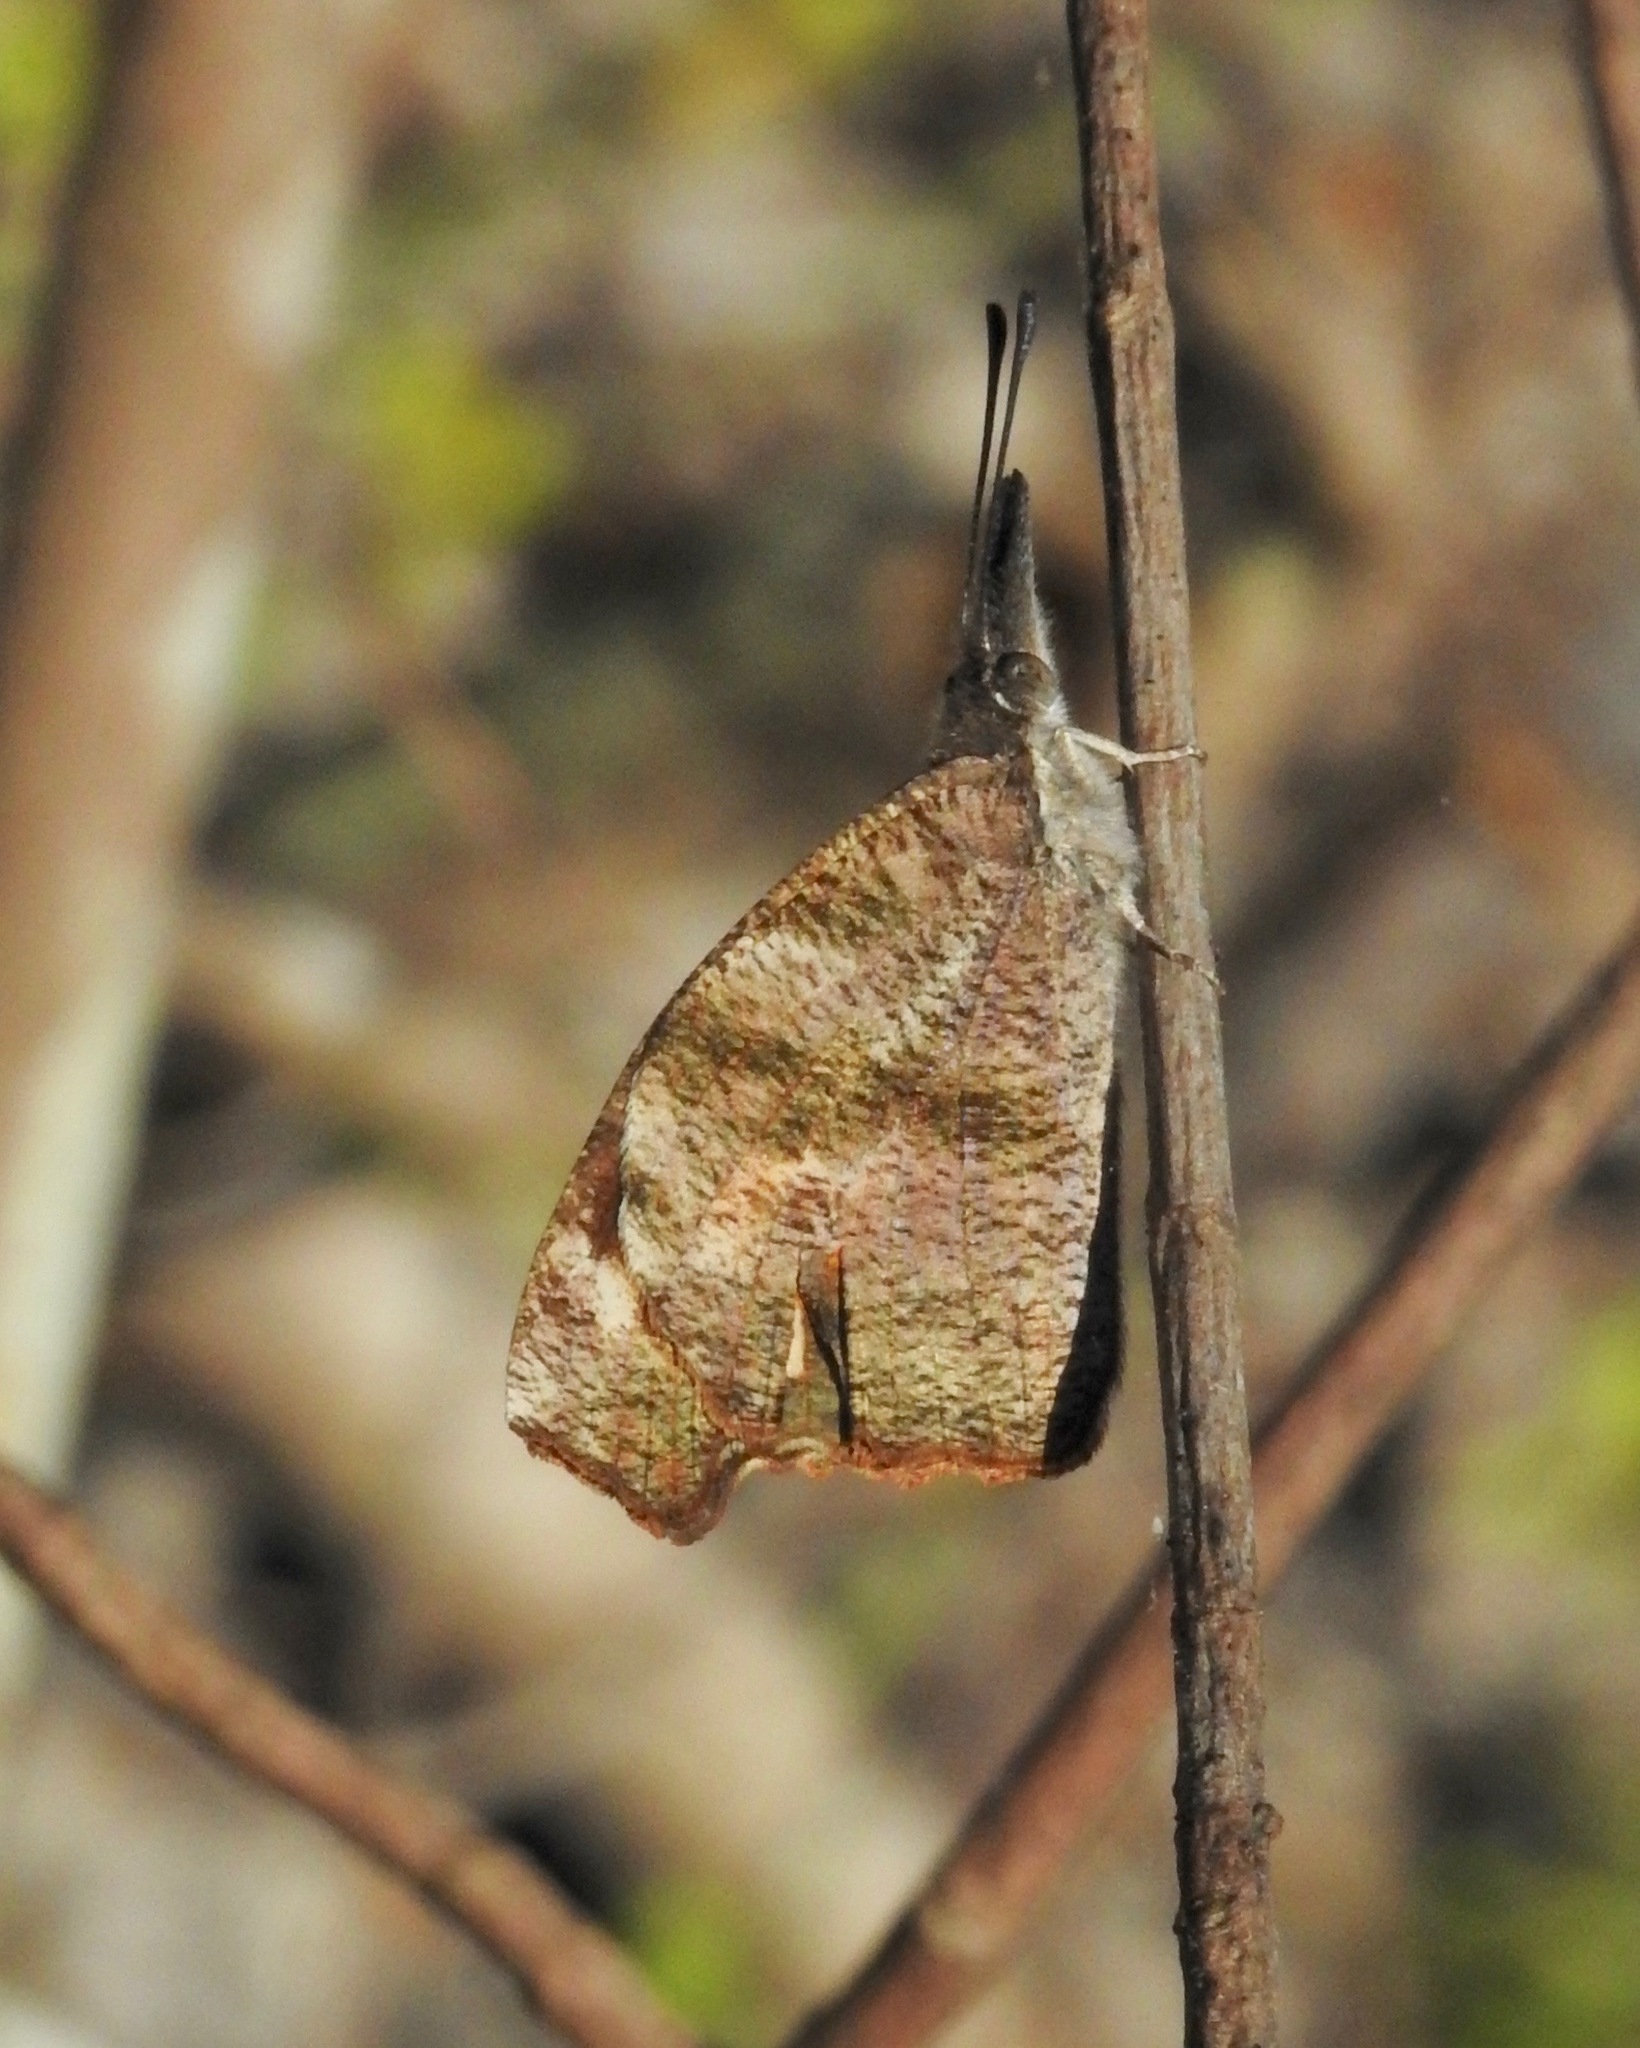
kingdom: Animalia
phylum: Arthropoda
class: Insecta
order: Lepidoptera
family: Nymphalidae
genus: Libytheana
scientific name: Libytheana carinenta
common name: American snout
